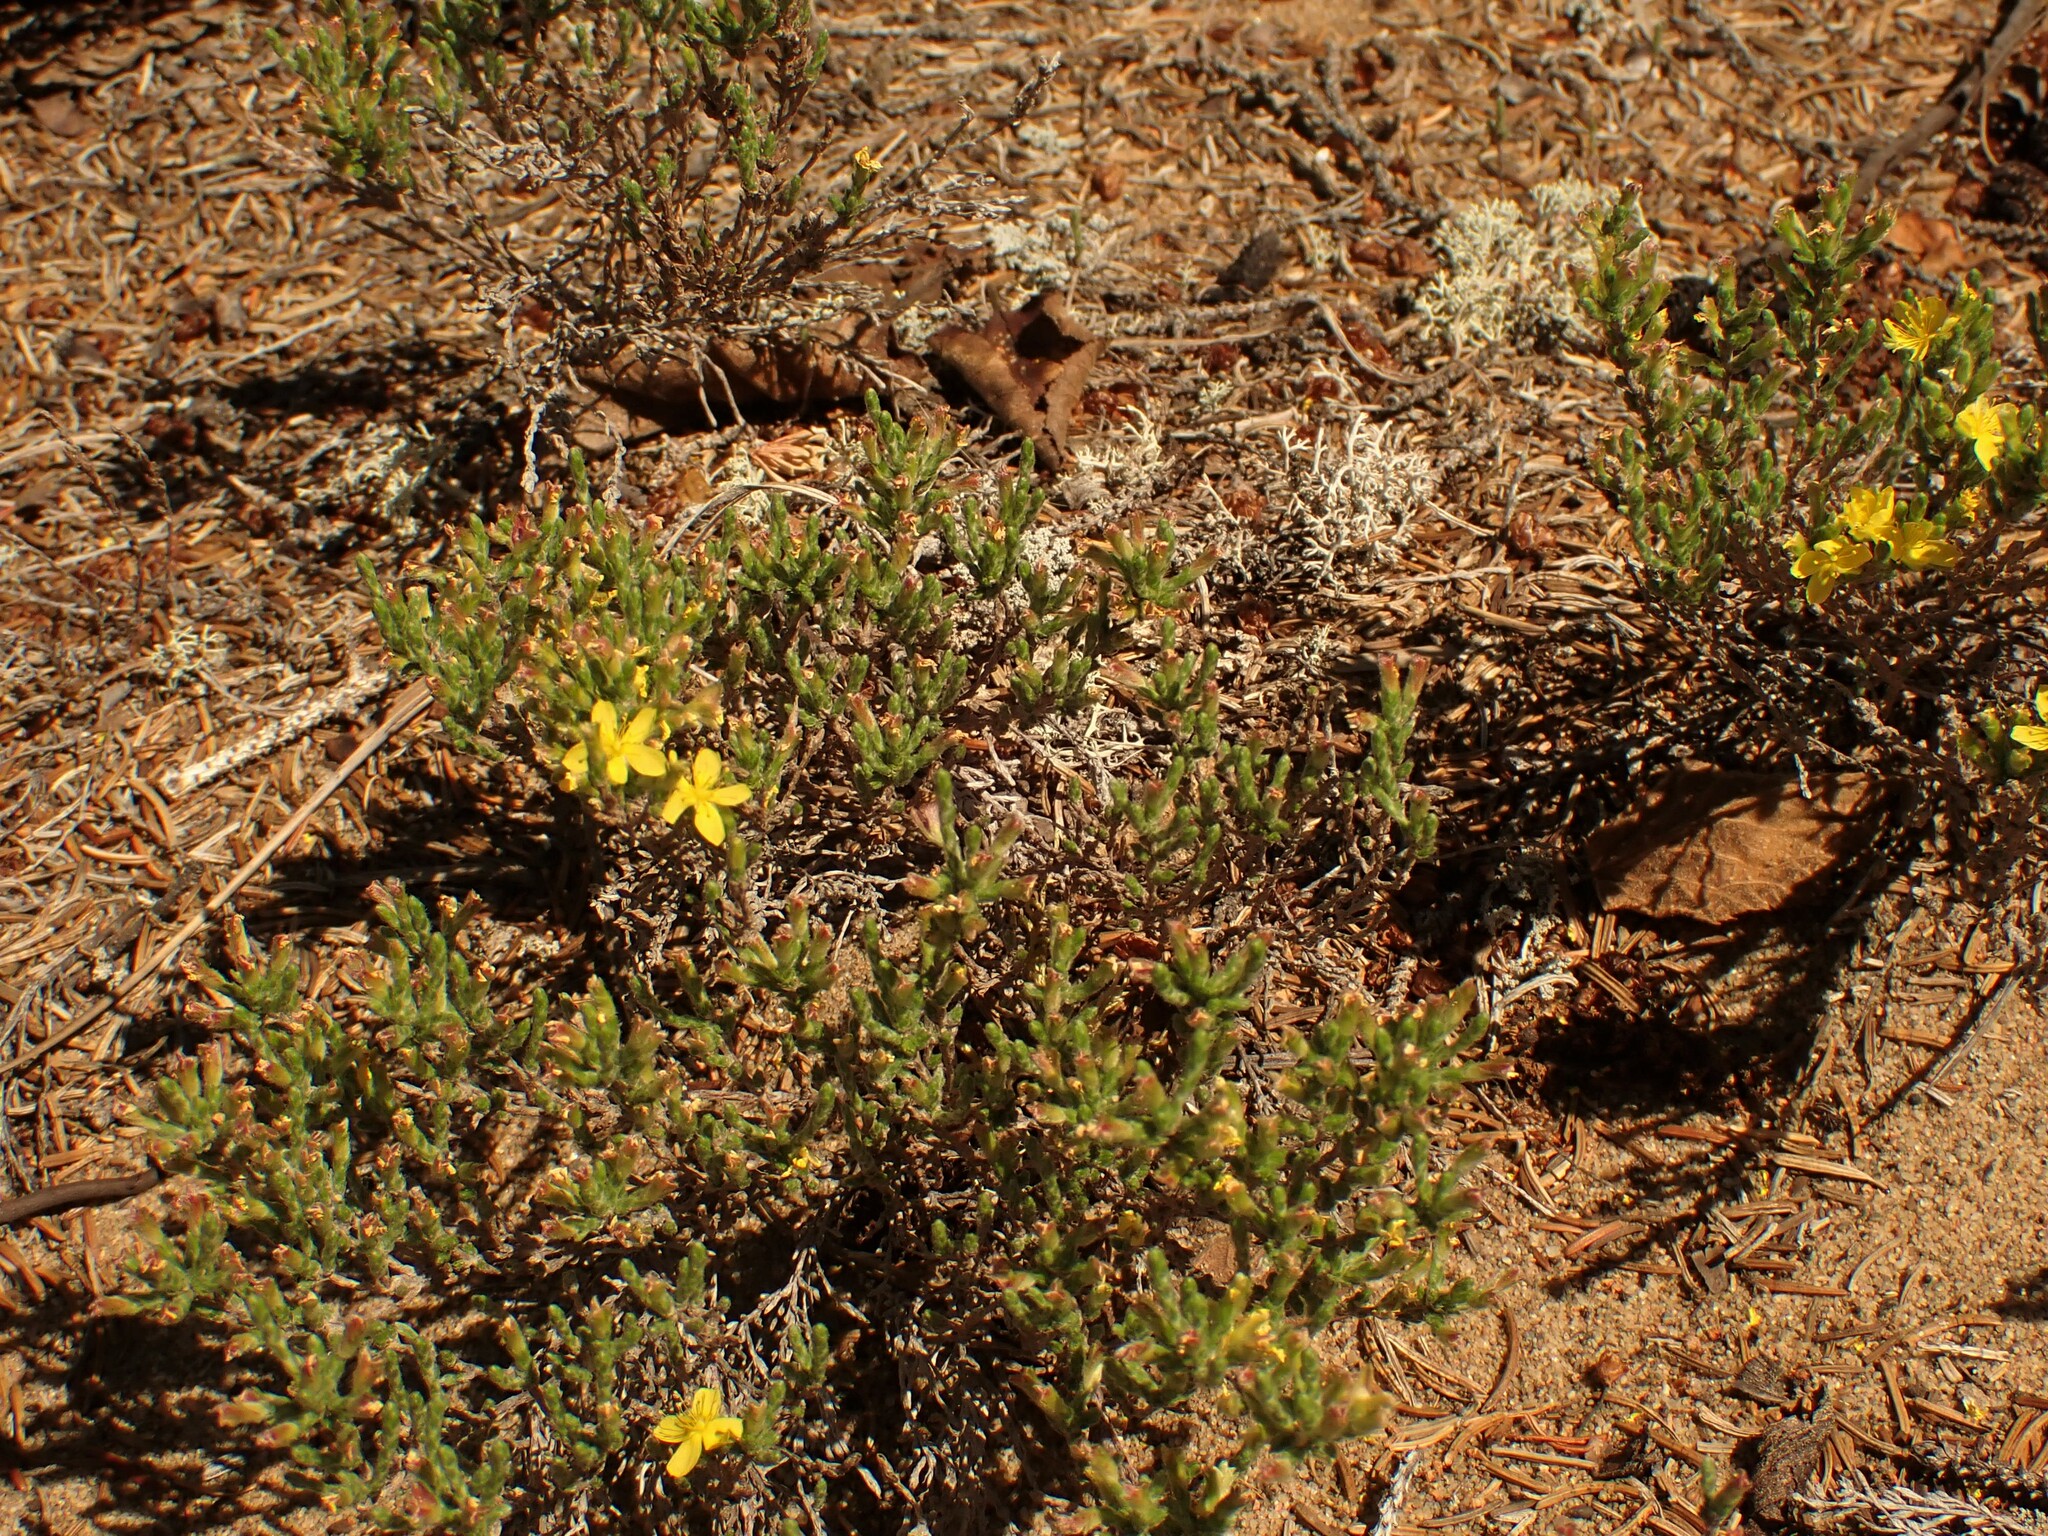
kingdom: Plantae
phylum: Tracheophyta
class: Magnoliopsida
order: Malvales
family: Cistaceae
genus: Hudsonia
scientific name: Hudsonia tomentosa
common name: Beach-heath
